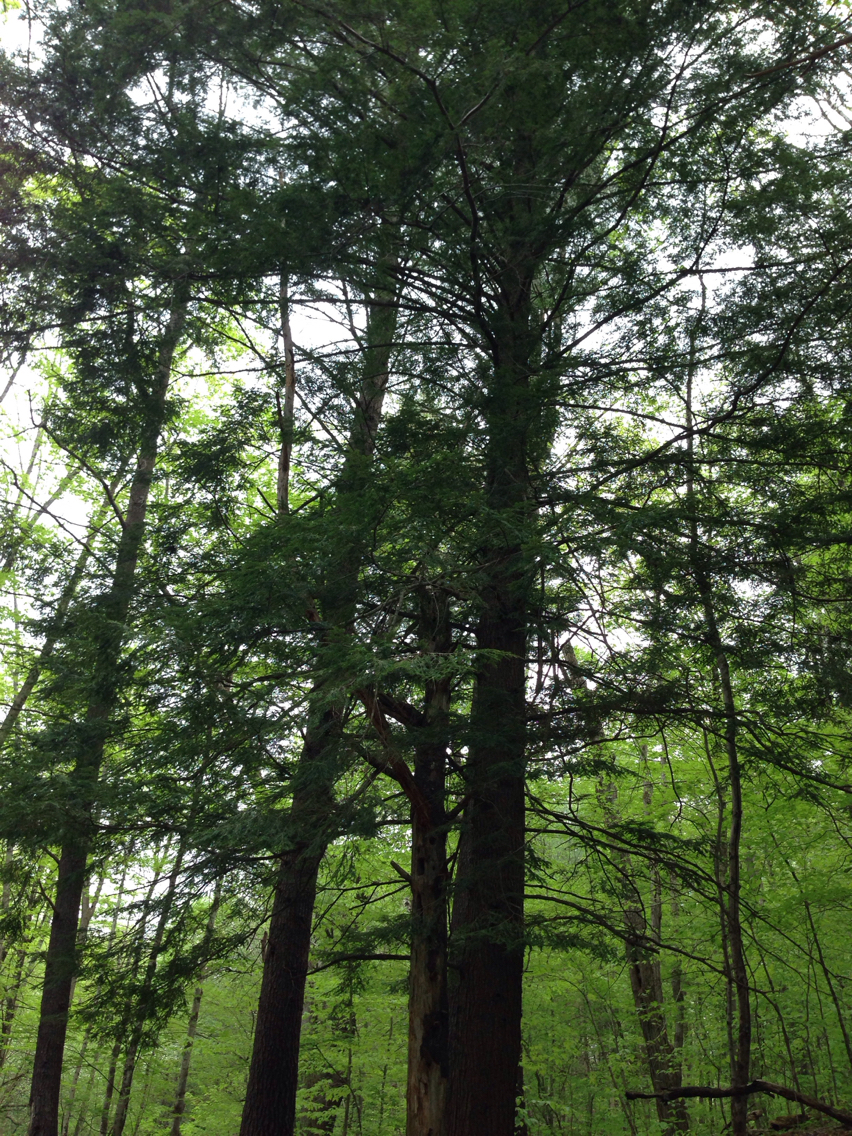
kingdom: Plantae
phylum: Tracheophyta
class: Pinopsida
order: Pinales
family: Pinaceae
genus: Tsuga
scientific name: Tsuga canadensis
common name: Eastern hemlock
